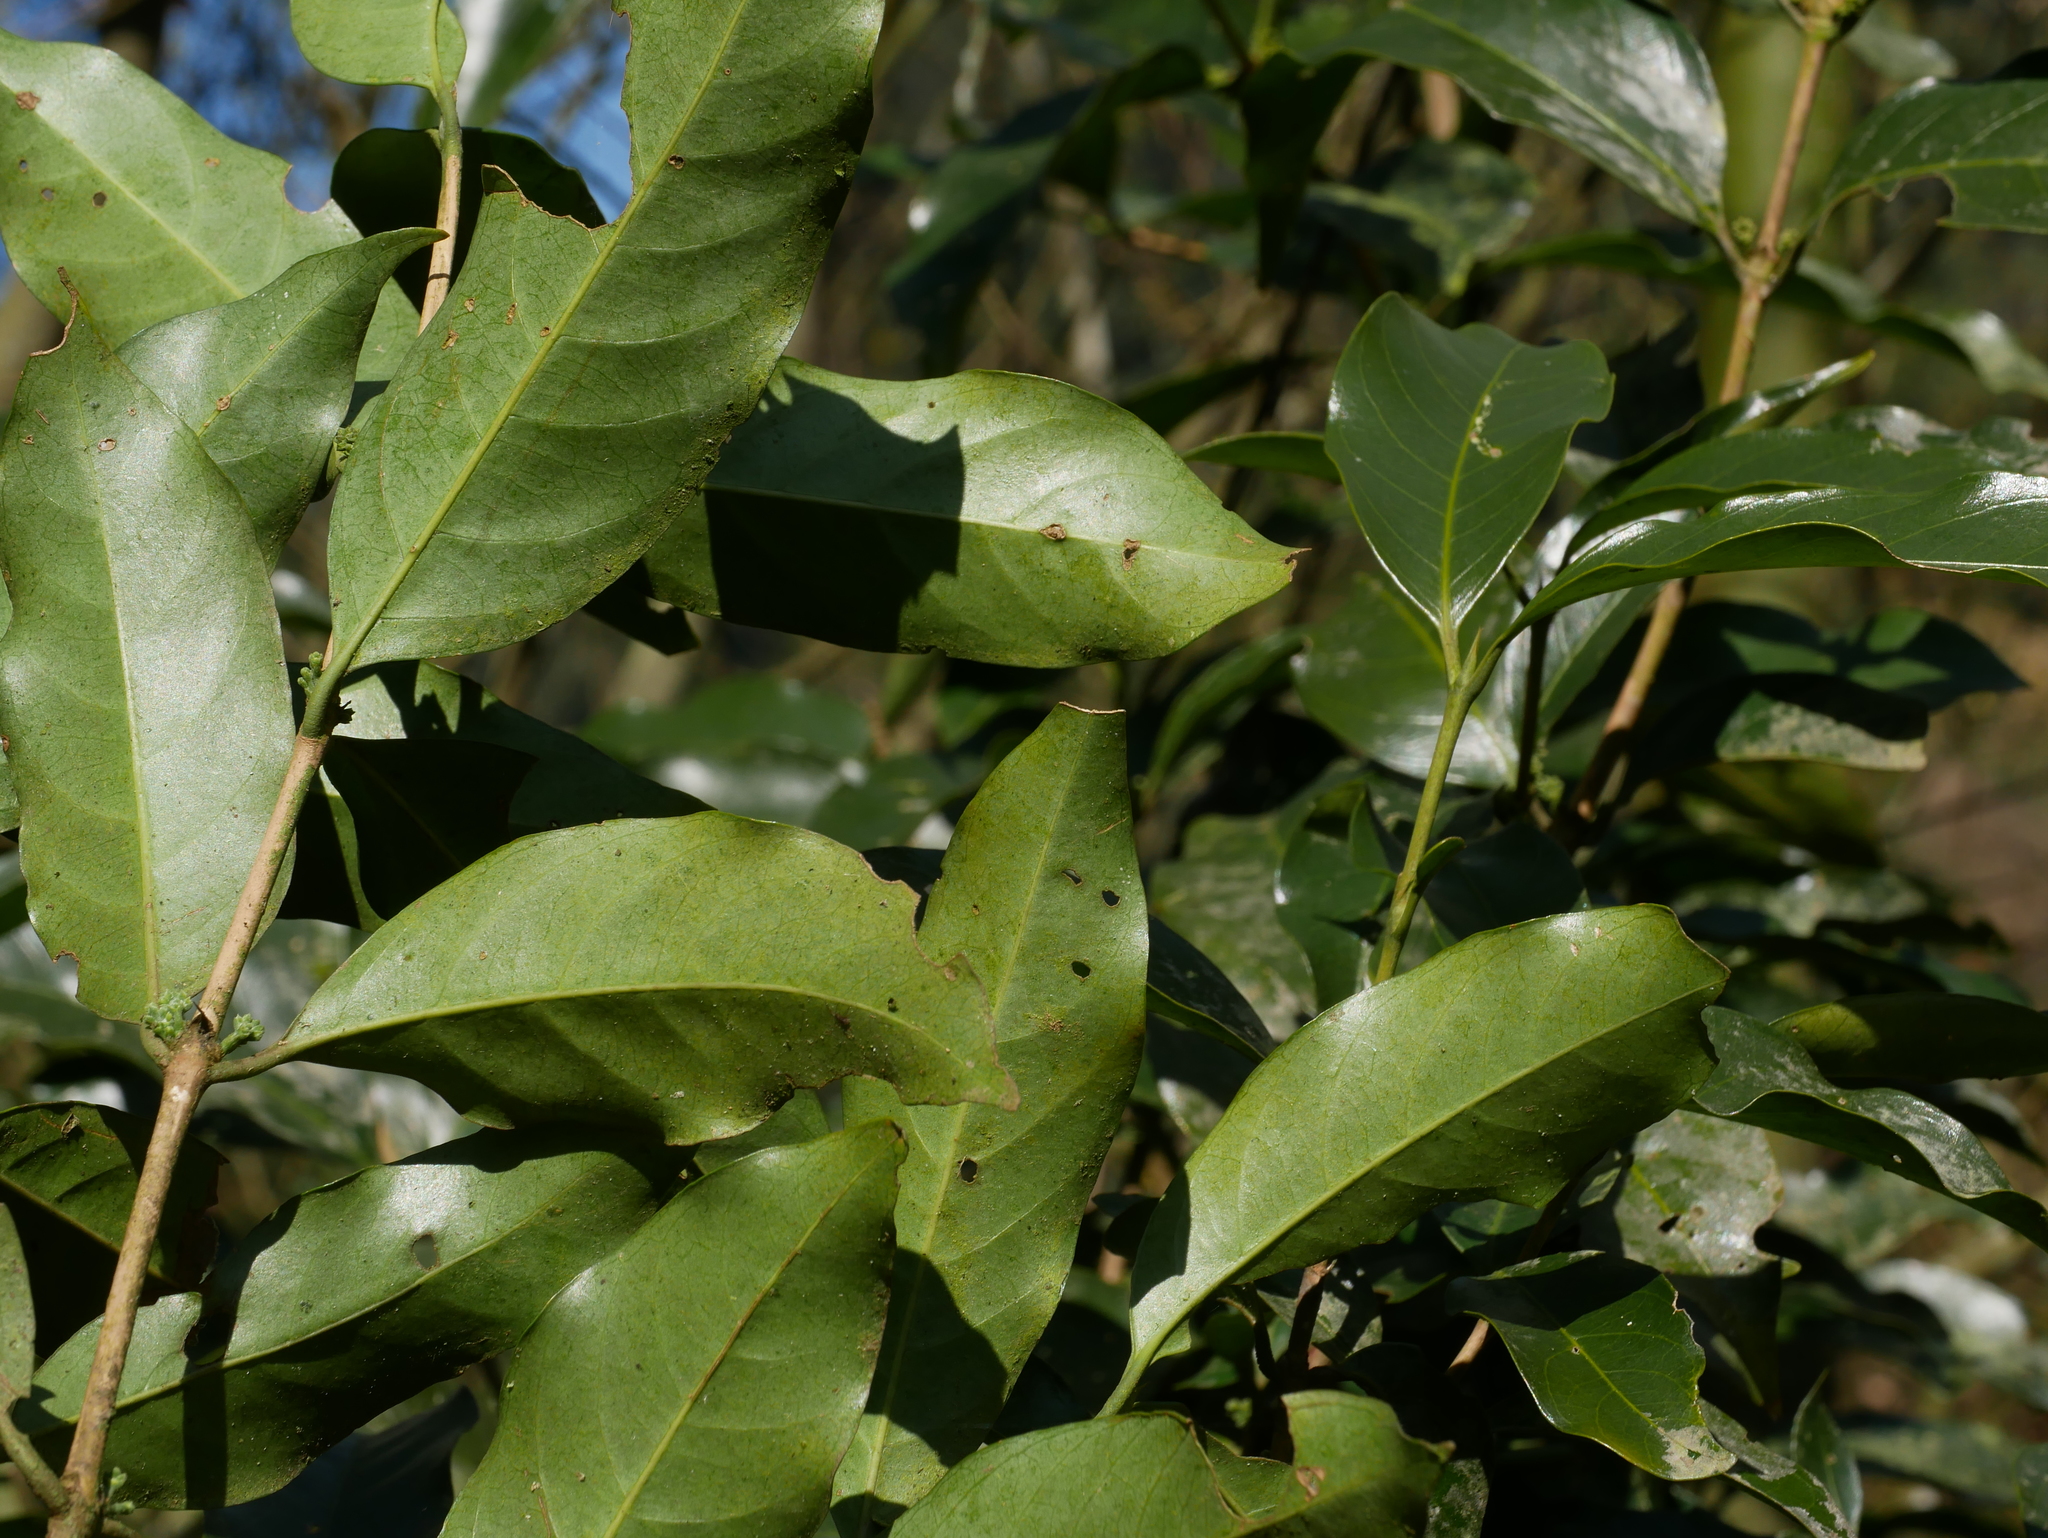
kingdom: Plantae
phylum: Tracheophyta
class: Magnoliopsida
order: Gentianales
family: Rubiaceae
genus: Diplospora
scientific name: Diplospora dubia
